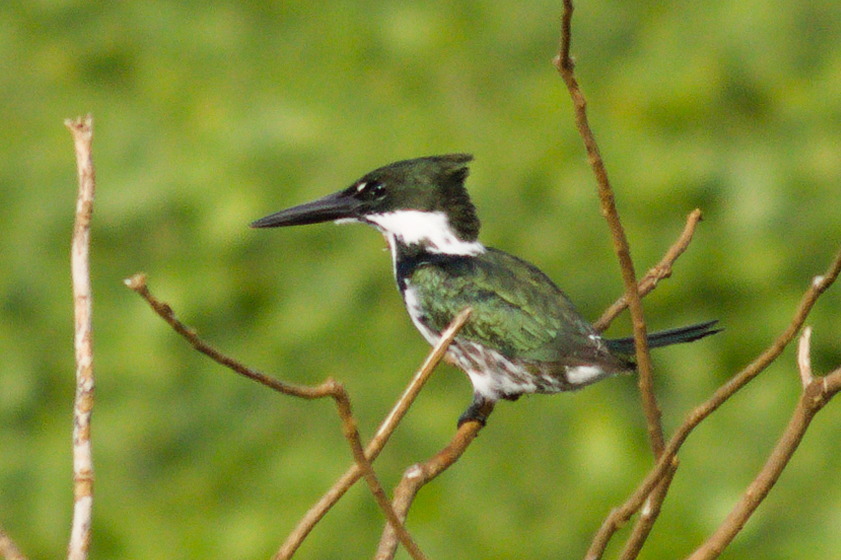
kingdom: Animalia
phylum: Chordata
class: Aves
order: Coraciiformes
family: Alcedinidae
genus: Chloroceryle
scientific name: Chloroceryle amazona
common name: Amazon kingfisher
